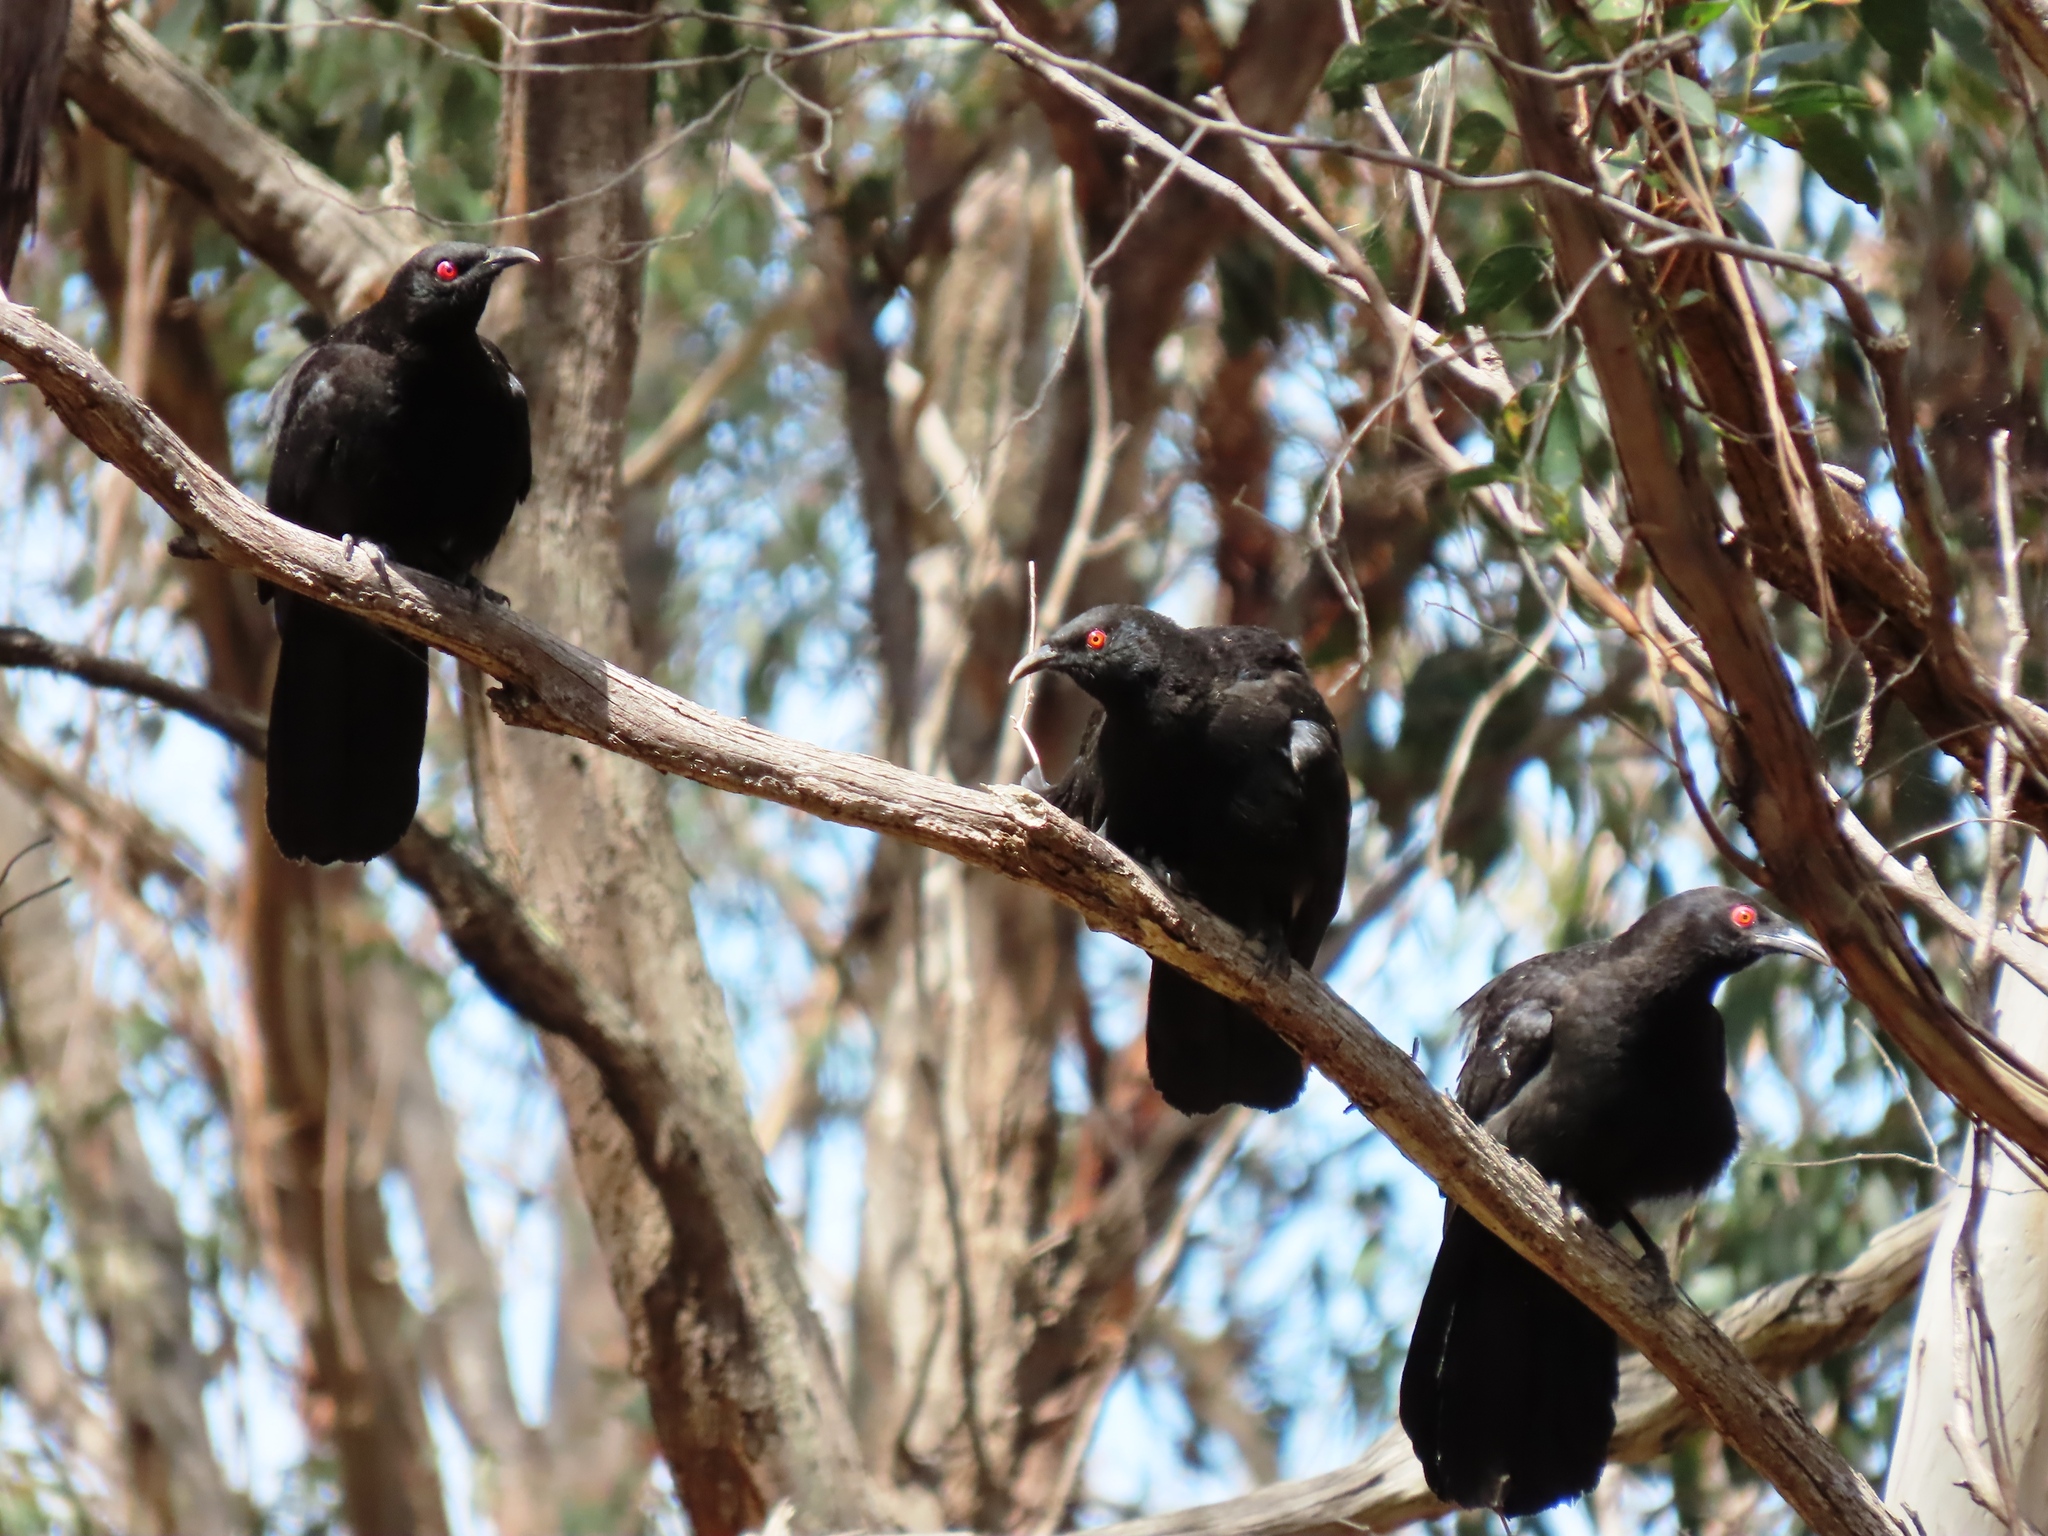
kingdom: Animalia
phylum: Chordata
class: Aves
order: Passeriformes
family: Corcoracidae
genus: Corcorax
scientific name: Corcorax melanoramphos
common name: White-winged chough
